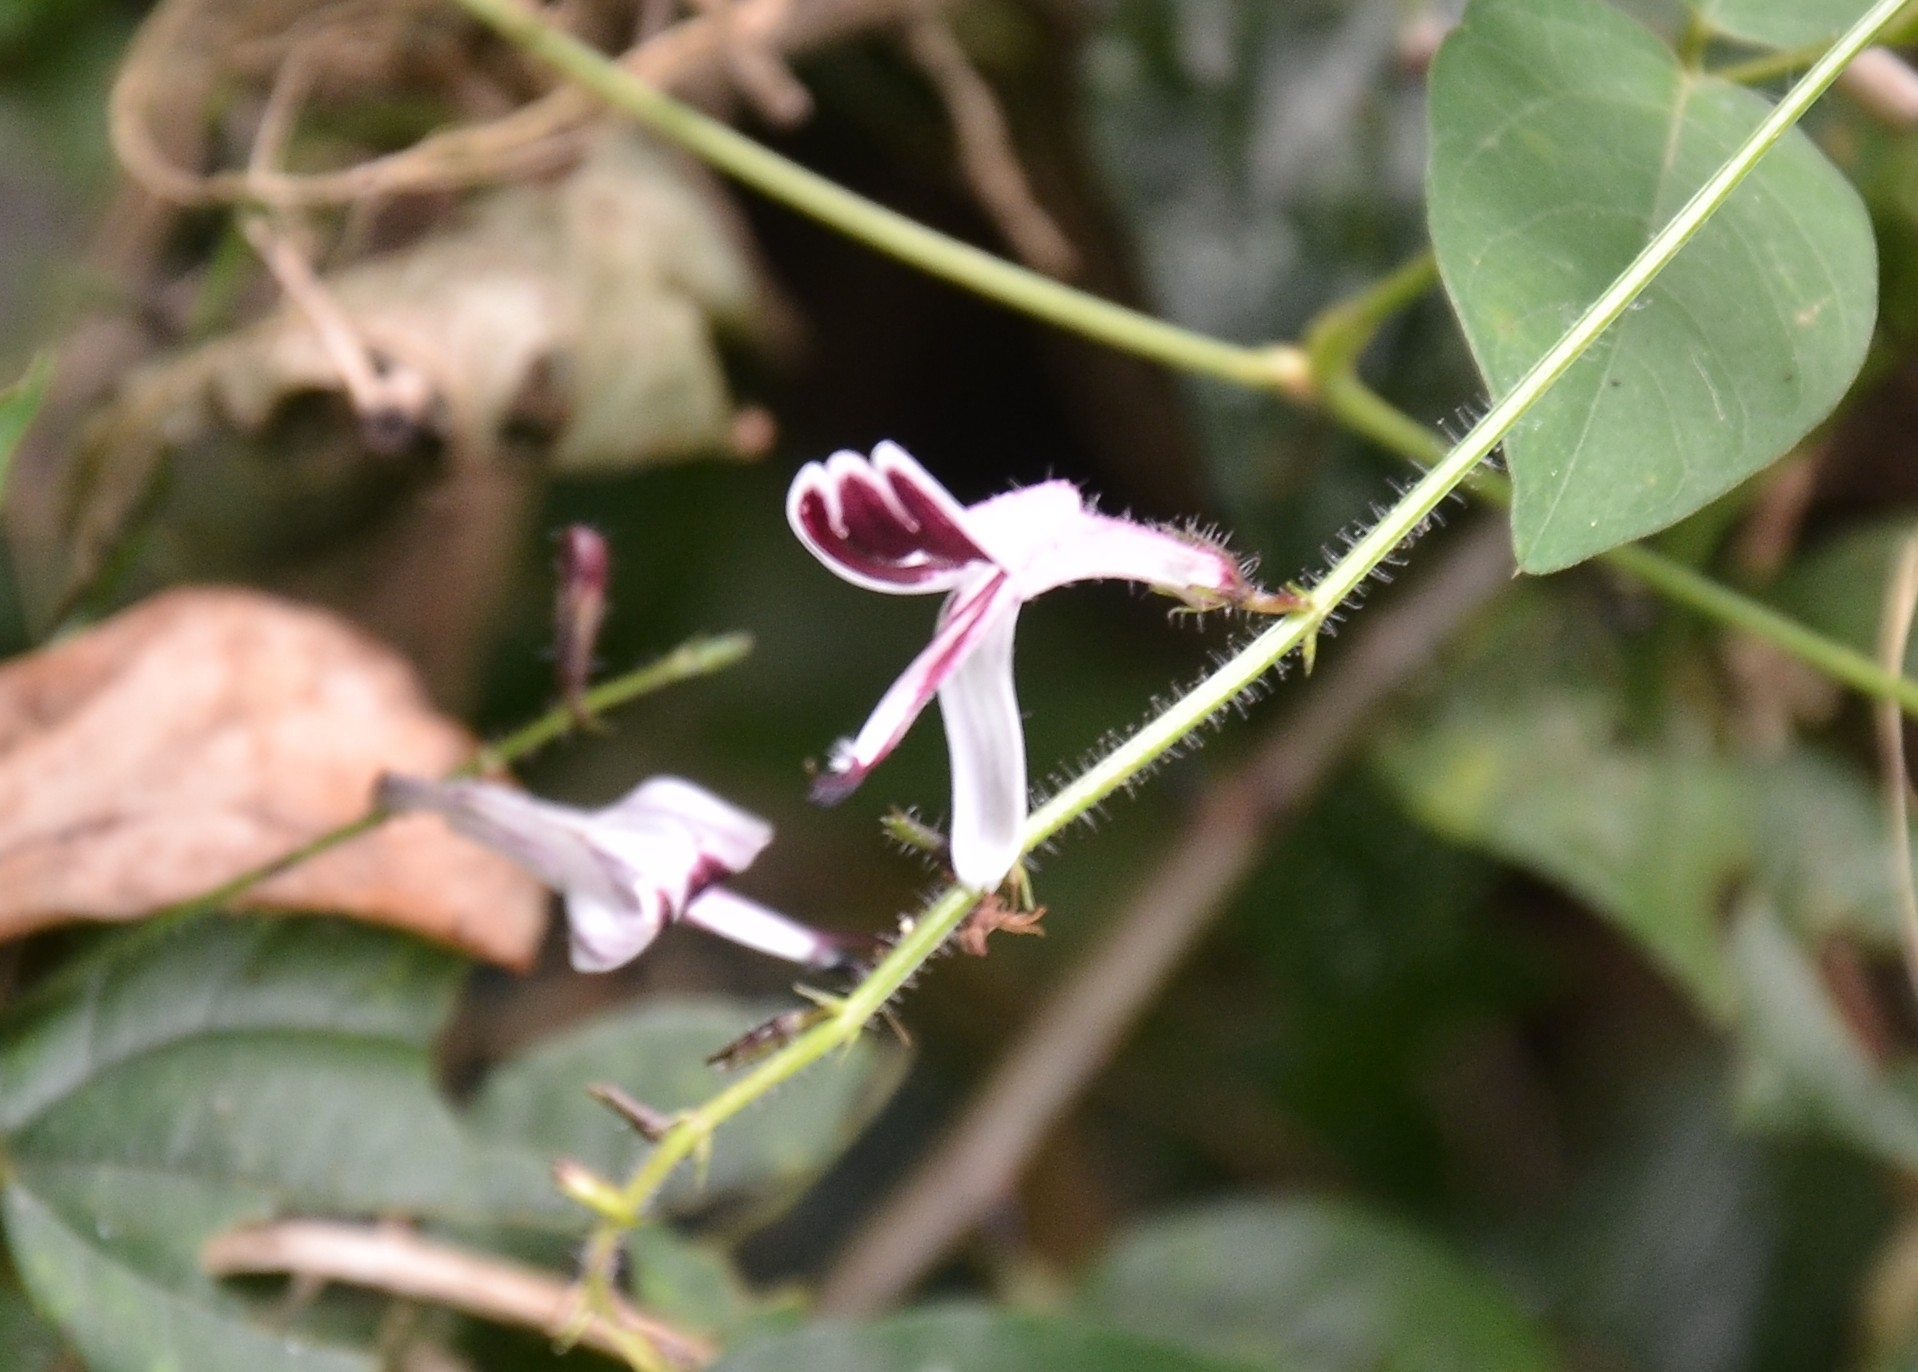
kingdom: Plantae
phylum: Tracheophyta
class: Magnoliopsida
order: Lamiales
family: Acanthaceae
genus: Andrographis
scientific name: Andrographis paniculata
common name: Green chireta
